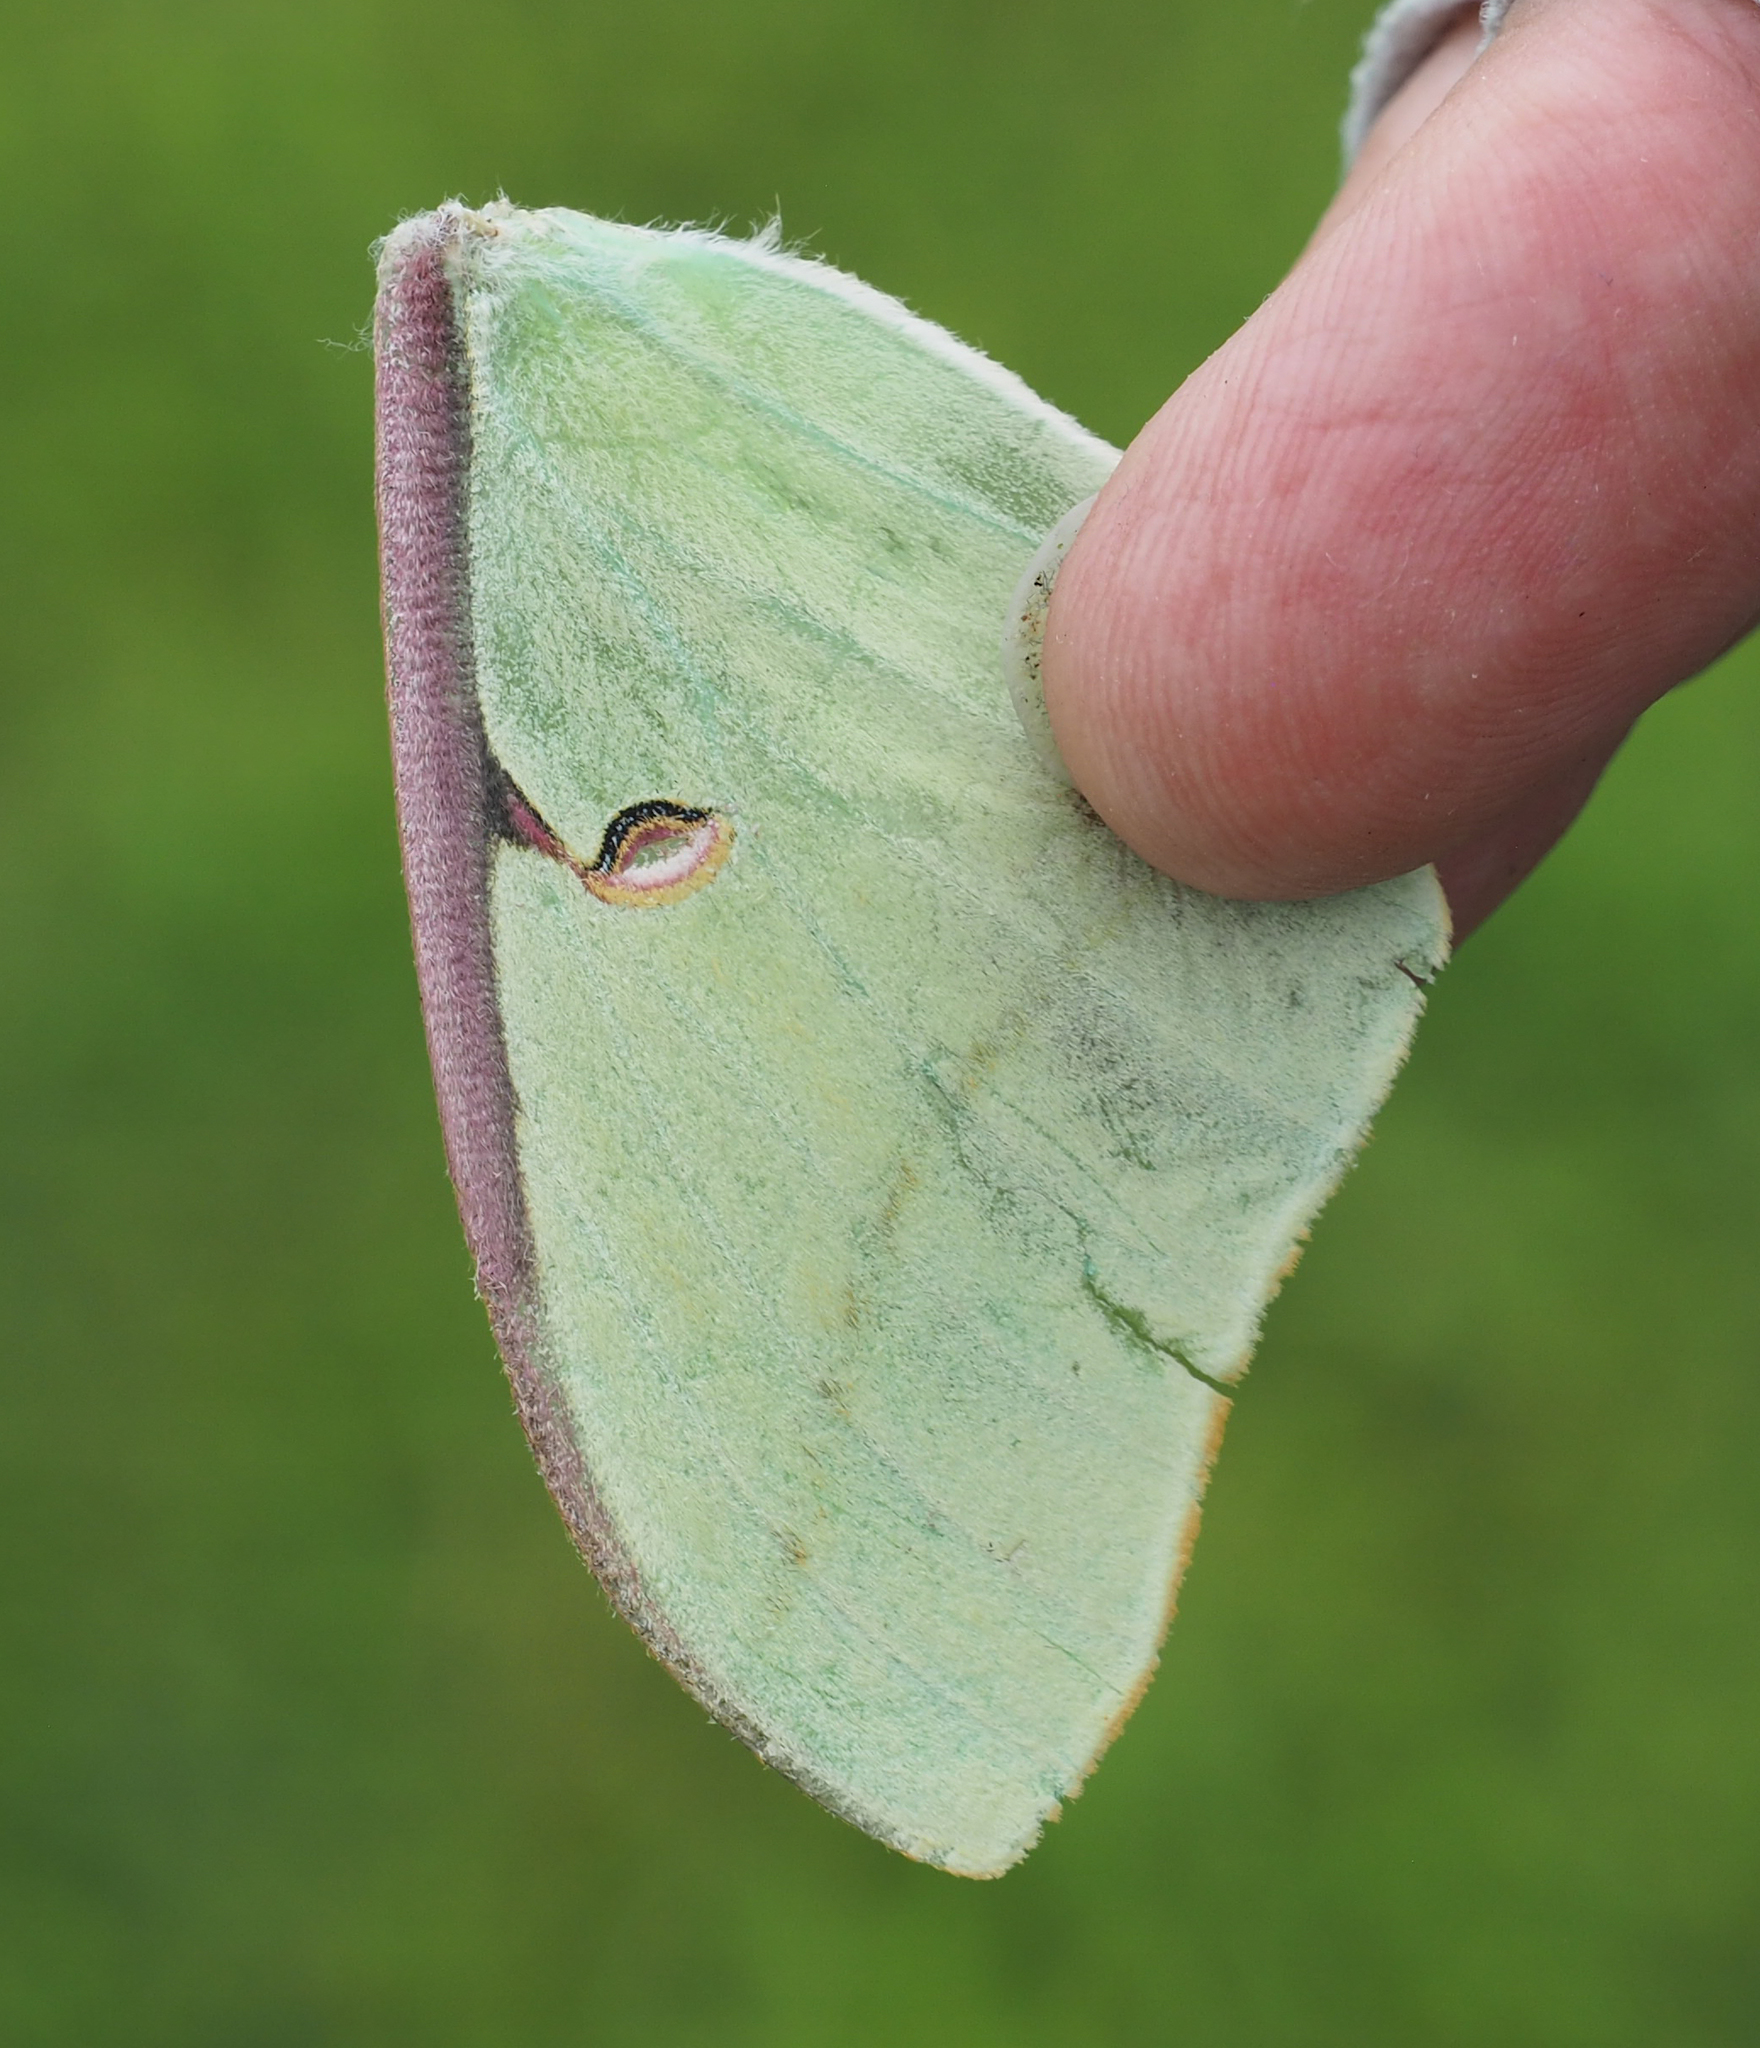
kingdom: Animalia
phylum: Arthropoda
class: Insecta
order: Lepidoptera
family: Saturniidae
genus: Actias
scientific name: Actias luna
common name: Luna moth
